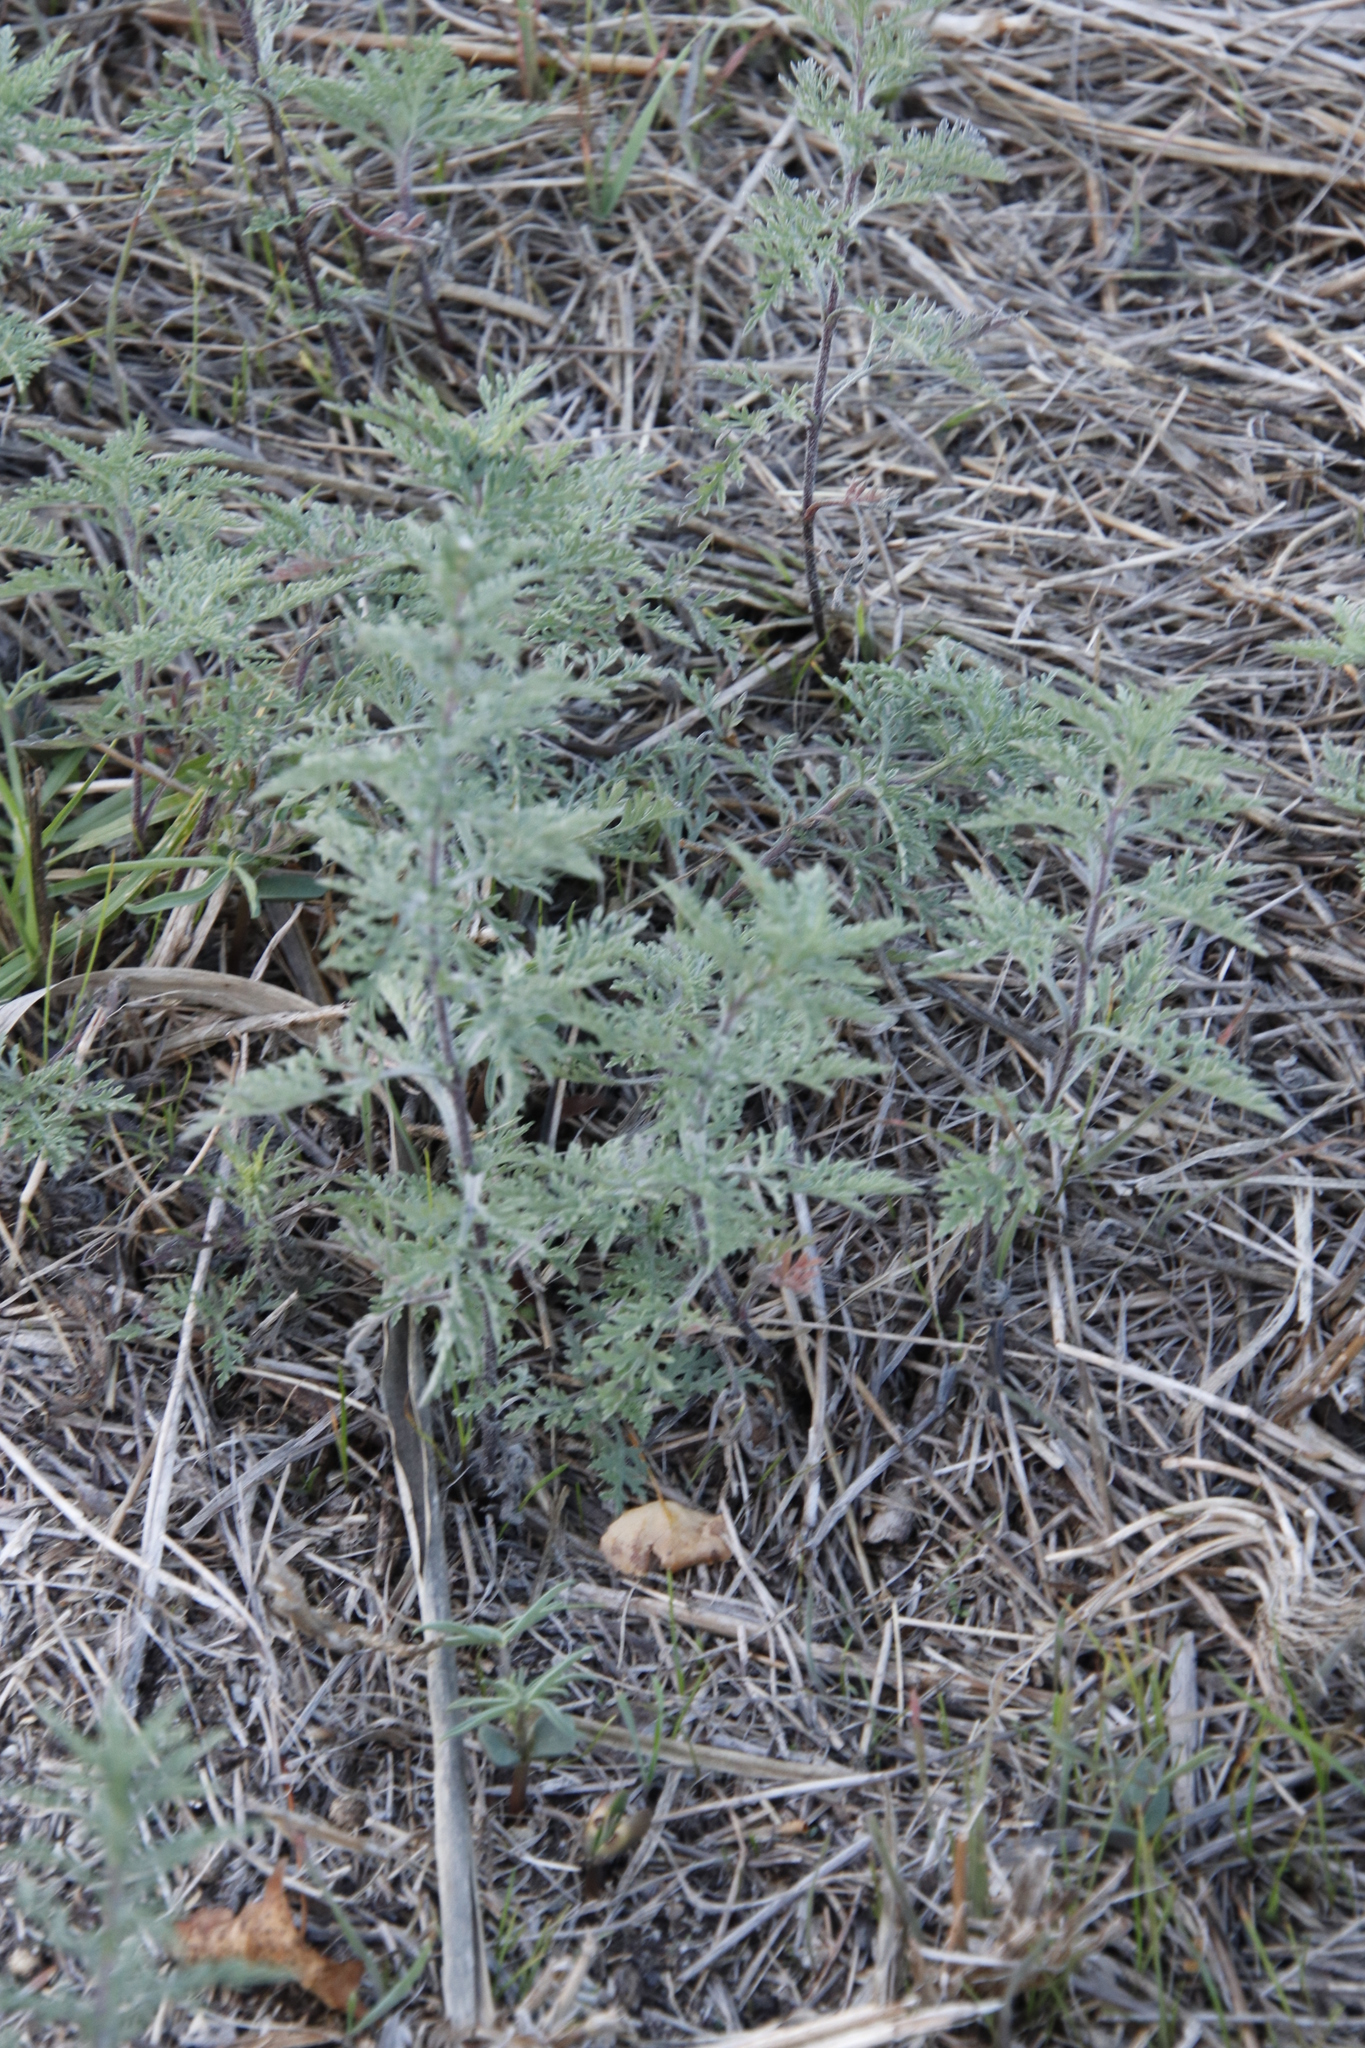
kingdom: Plantae
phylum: Tracheophyta
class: Magnoliopsida
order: Asterales
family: Asteraceae
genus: Artemisia
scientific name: Artemisia afra
